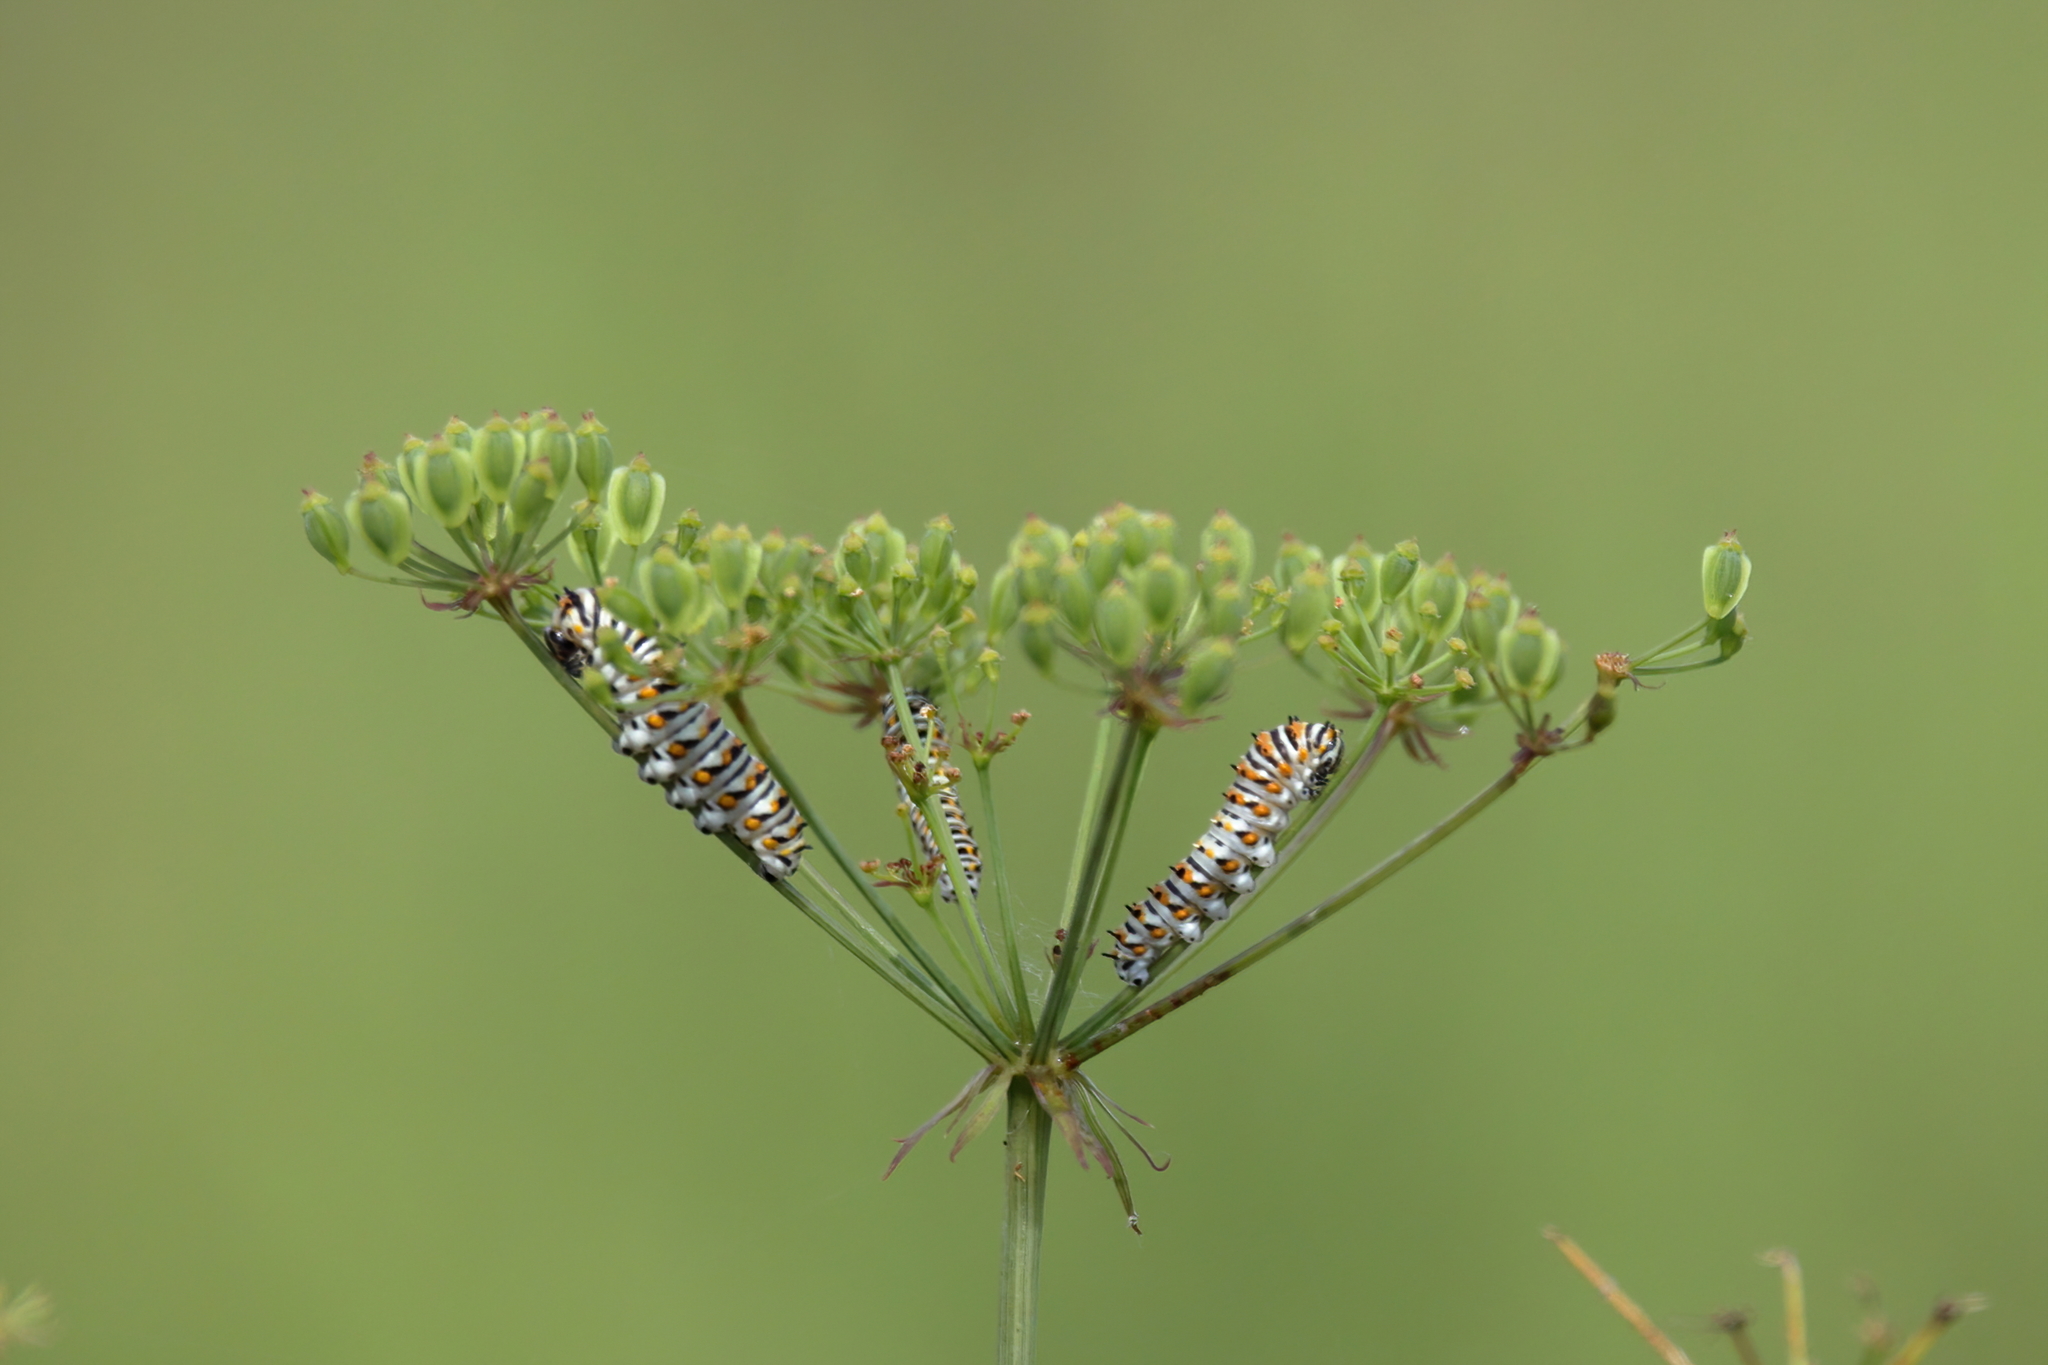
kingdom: Animalia
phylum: Arthropoda
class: Insecta
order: Lepidoptera
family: Papilionidae
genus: Papilio
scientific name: Papilio polyxenes
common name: Black swallowtail
